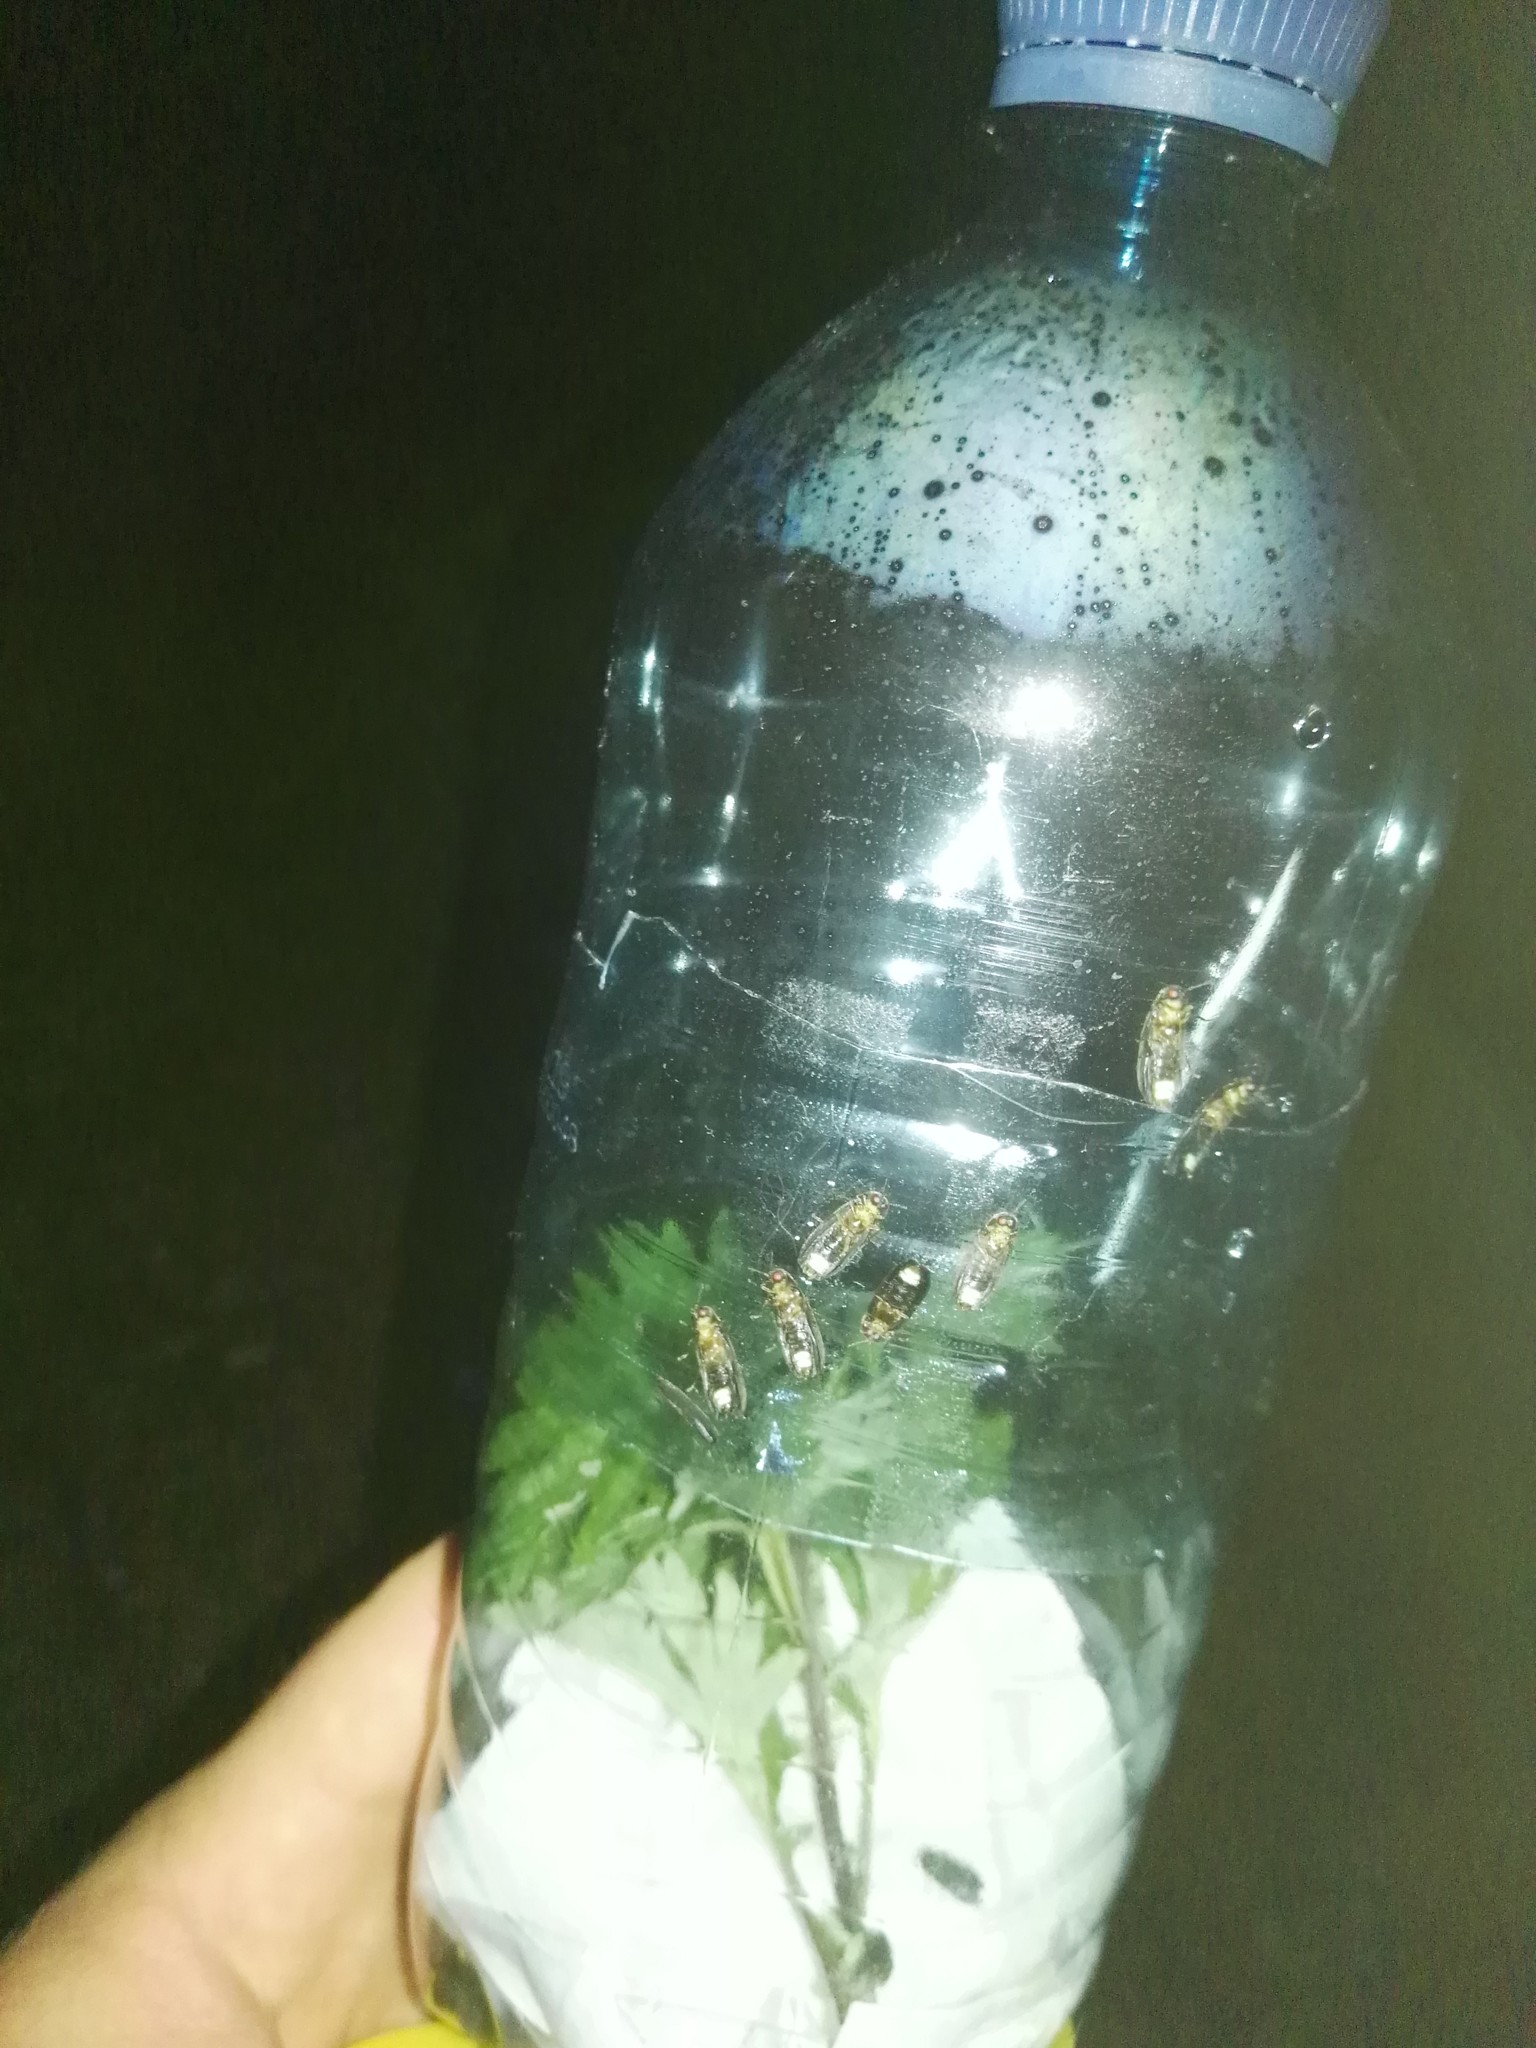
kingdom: Animalia
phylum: Arthropoda
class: Insecta
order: Coleoptera
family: Lampyridae
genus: Lamprohiza
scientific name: Lamprohiza splendidula
